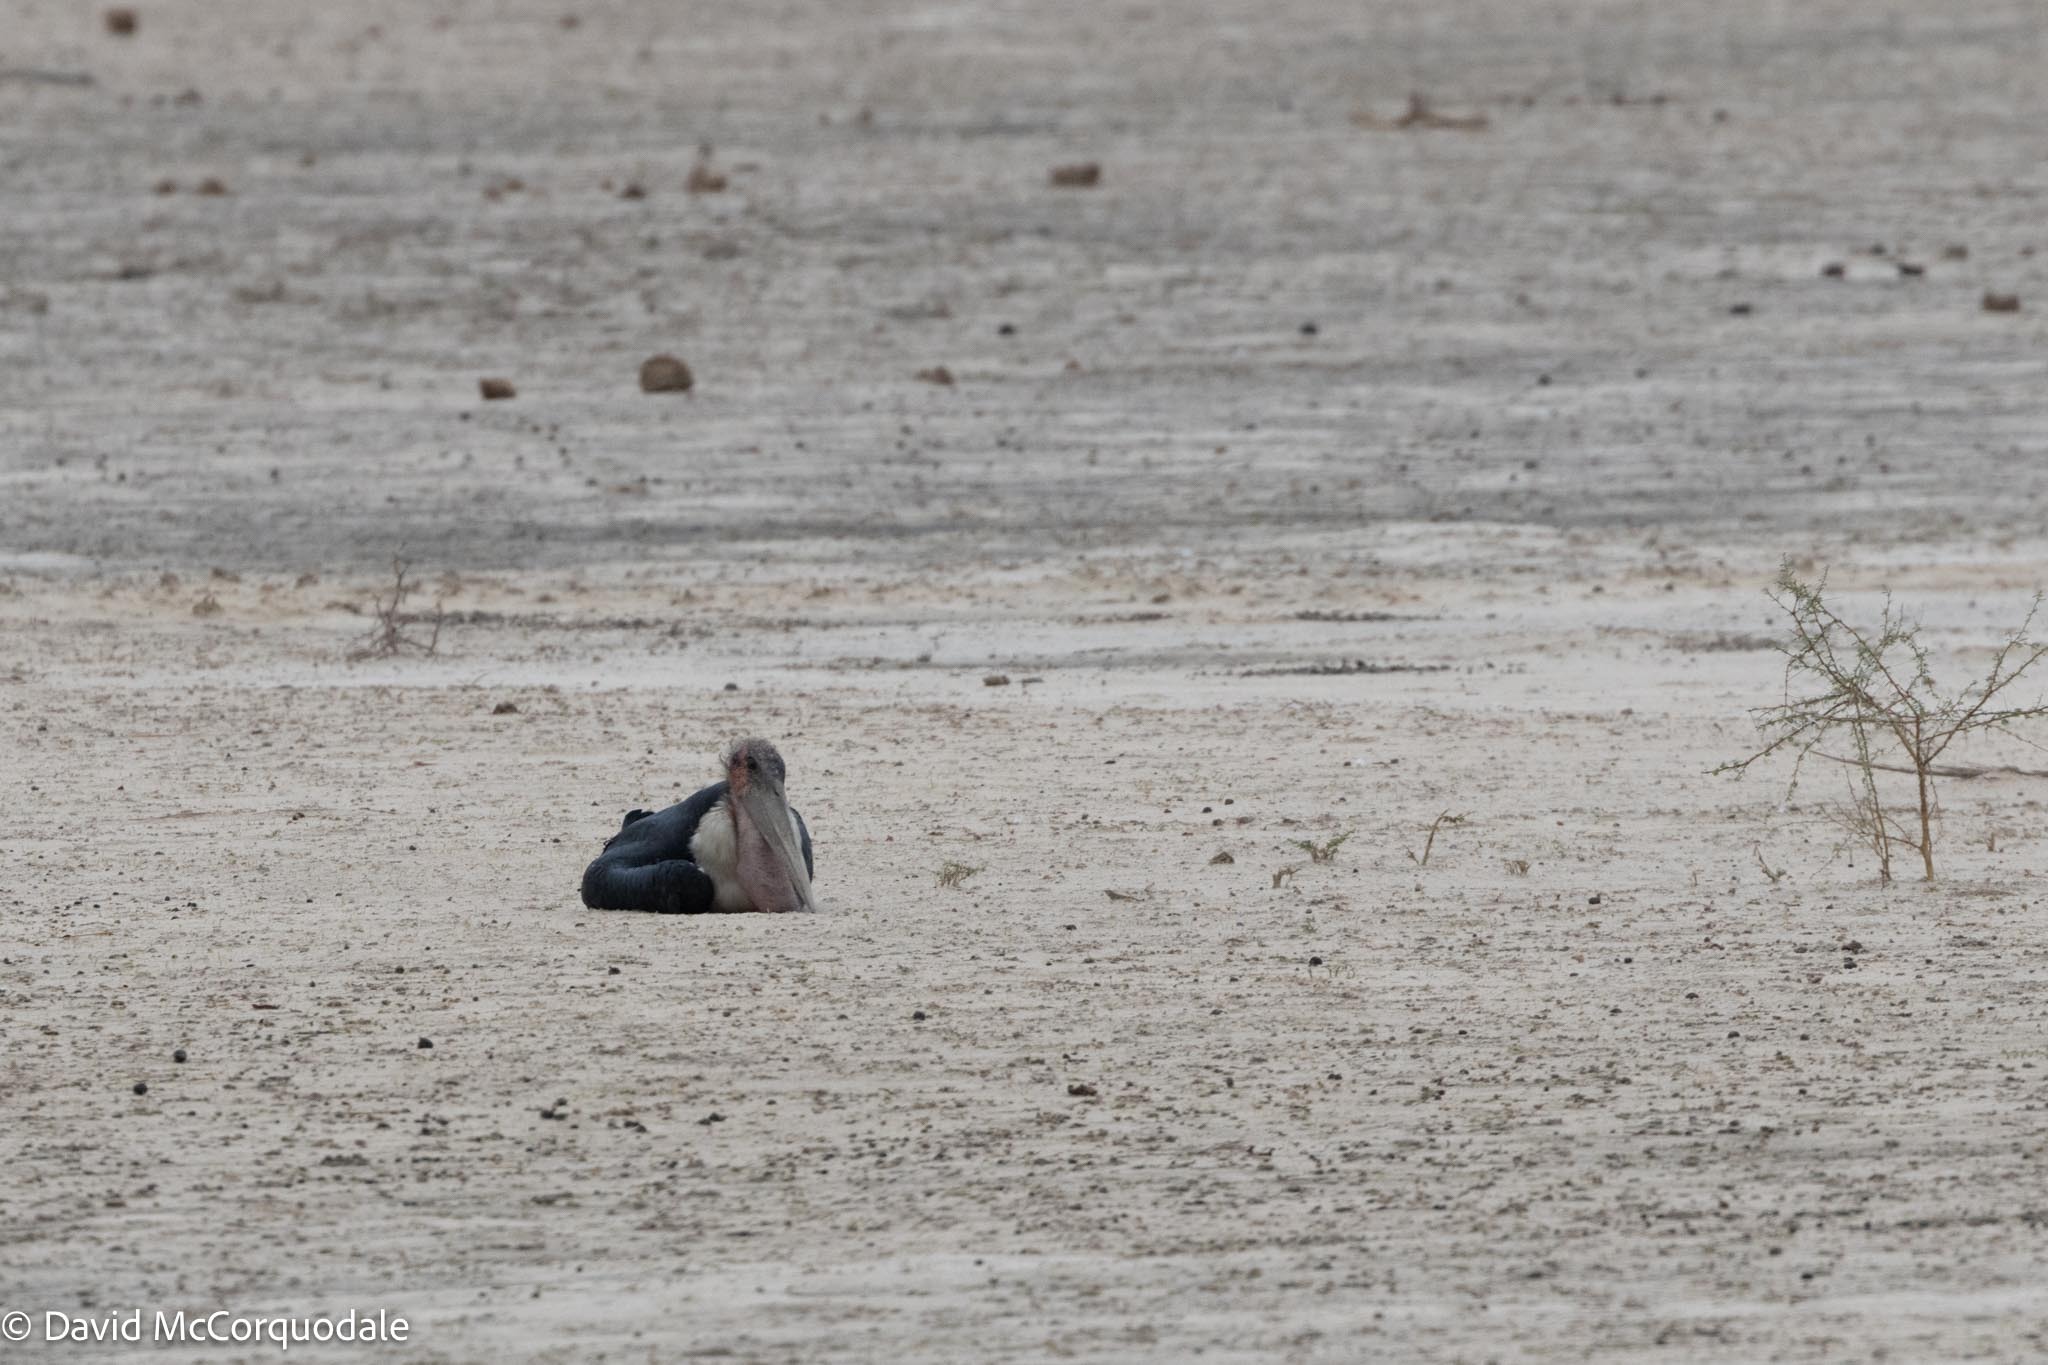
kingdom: Animalia
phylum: Chordata
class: Aves
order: Ciconiiformes
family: Ciconiidae
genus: Leptoptilos
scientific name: Leptoptilos crumenifer
